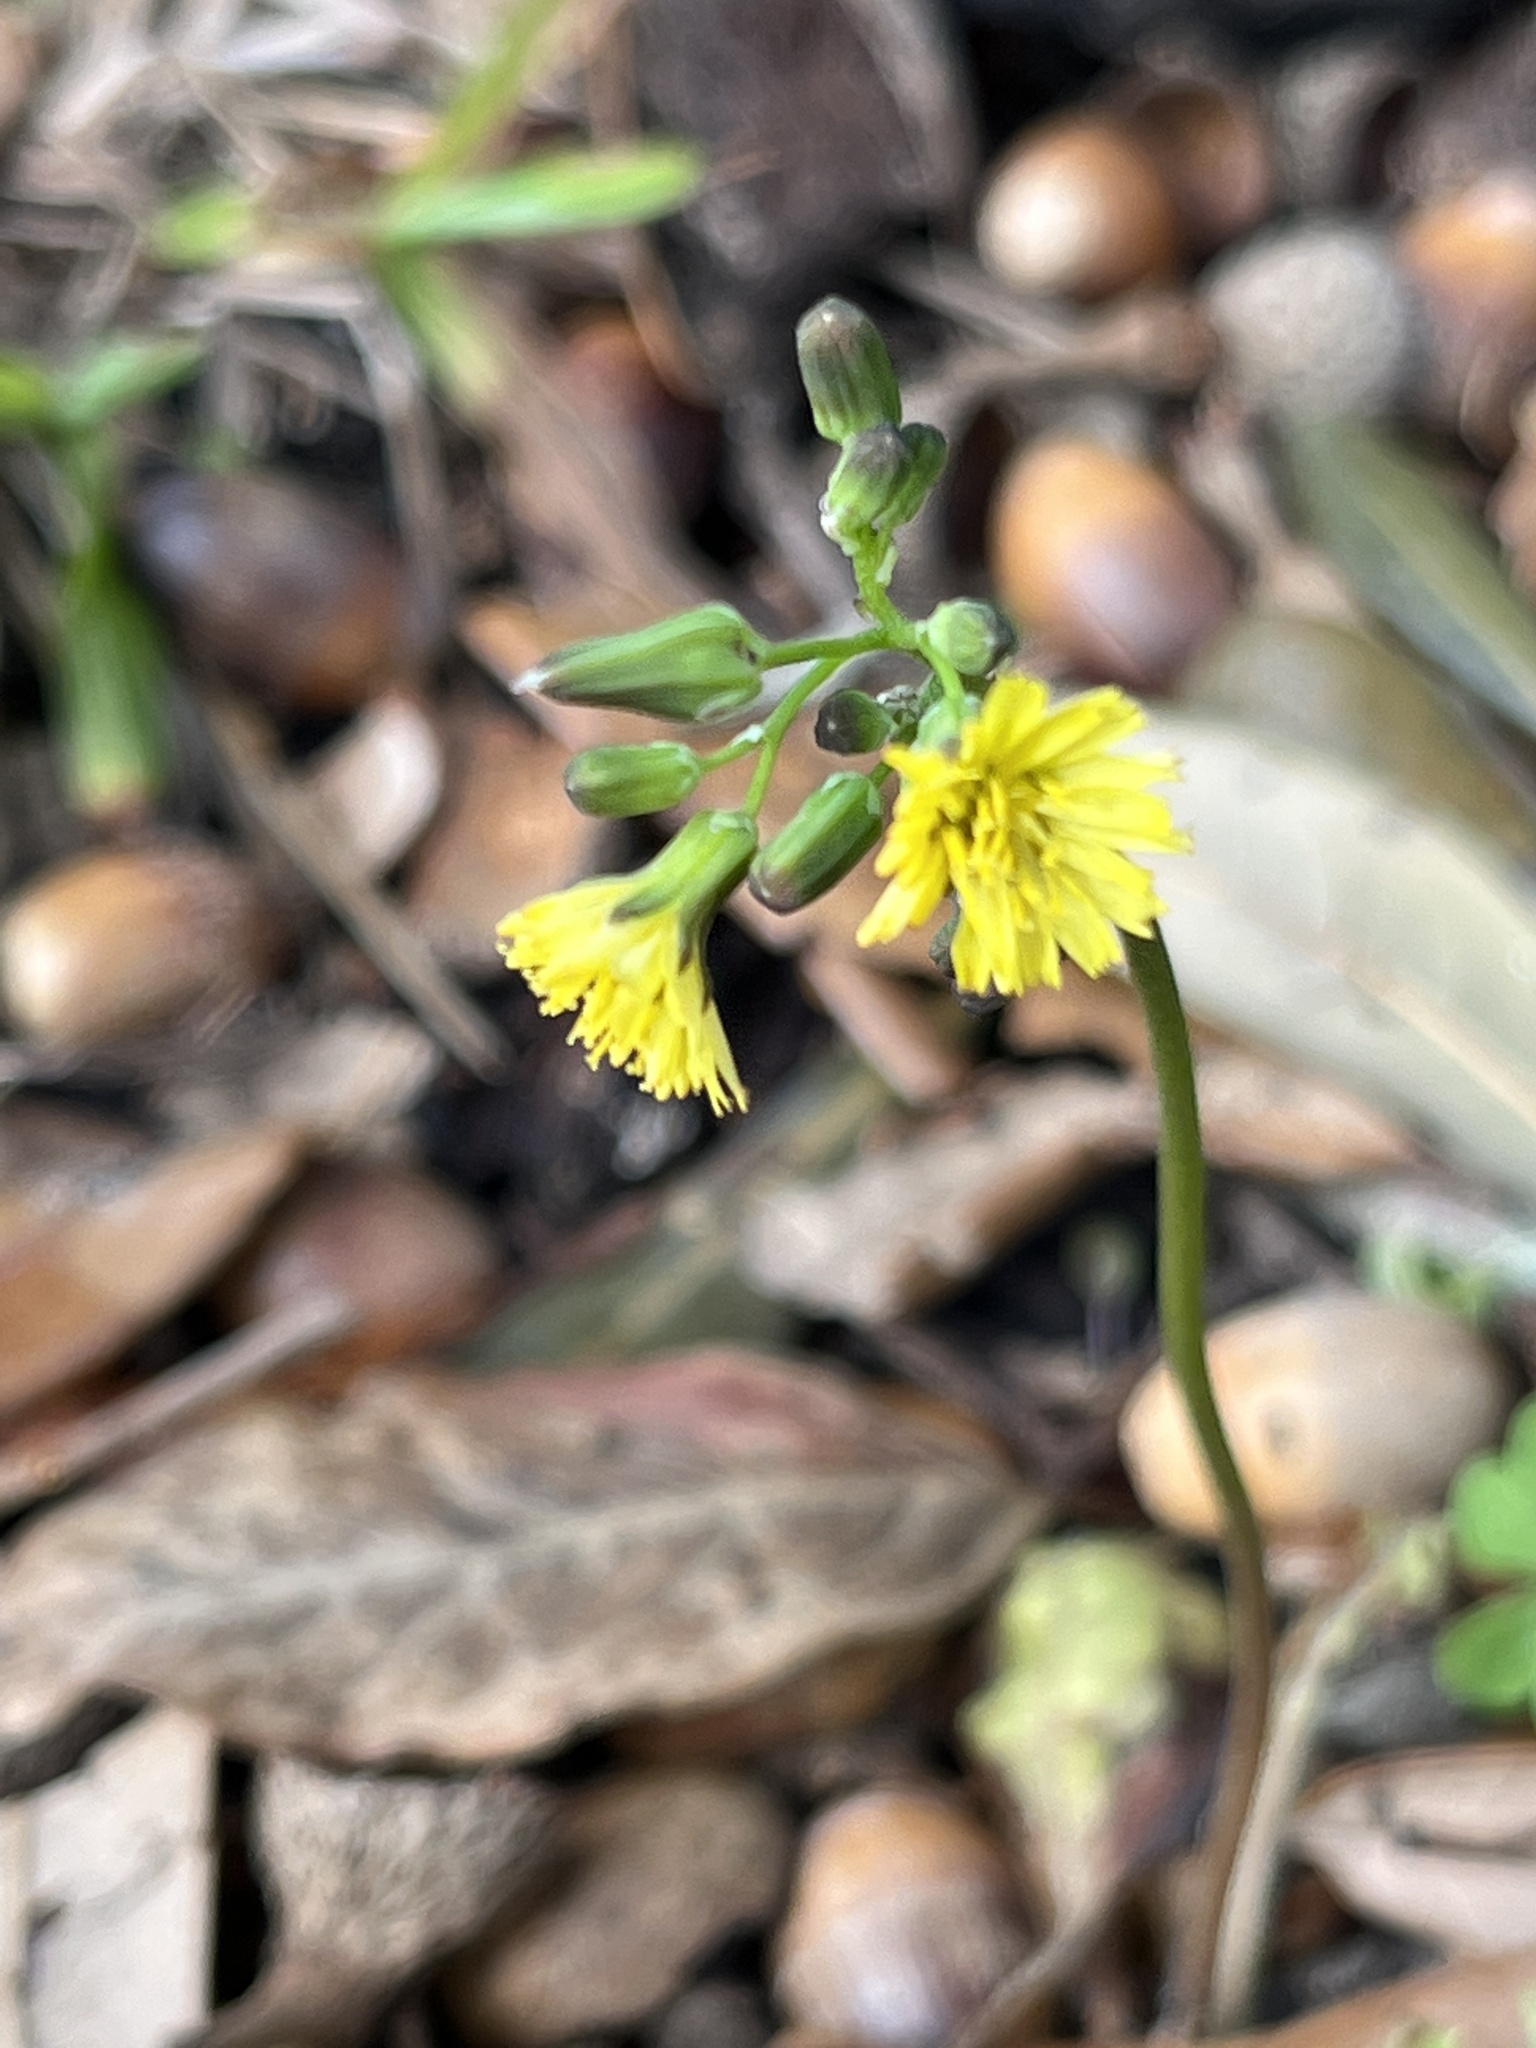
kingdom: Plantae
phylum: Tracheophyta
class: Magnoliopsida
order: Asterales
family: Asteraceae
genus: Youngia
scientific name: Youngia japonica
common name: Oriental false hawksbeard
